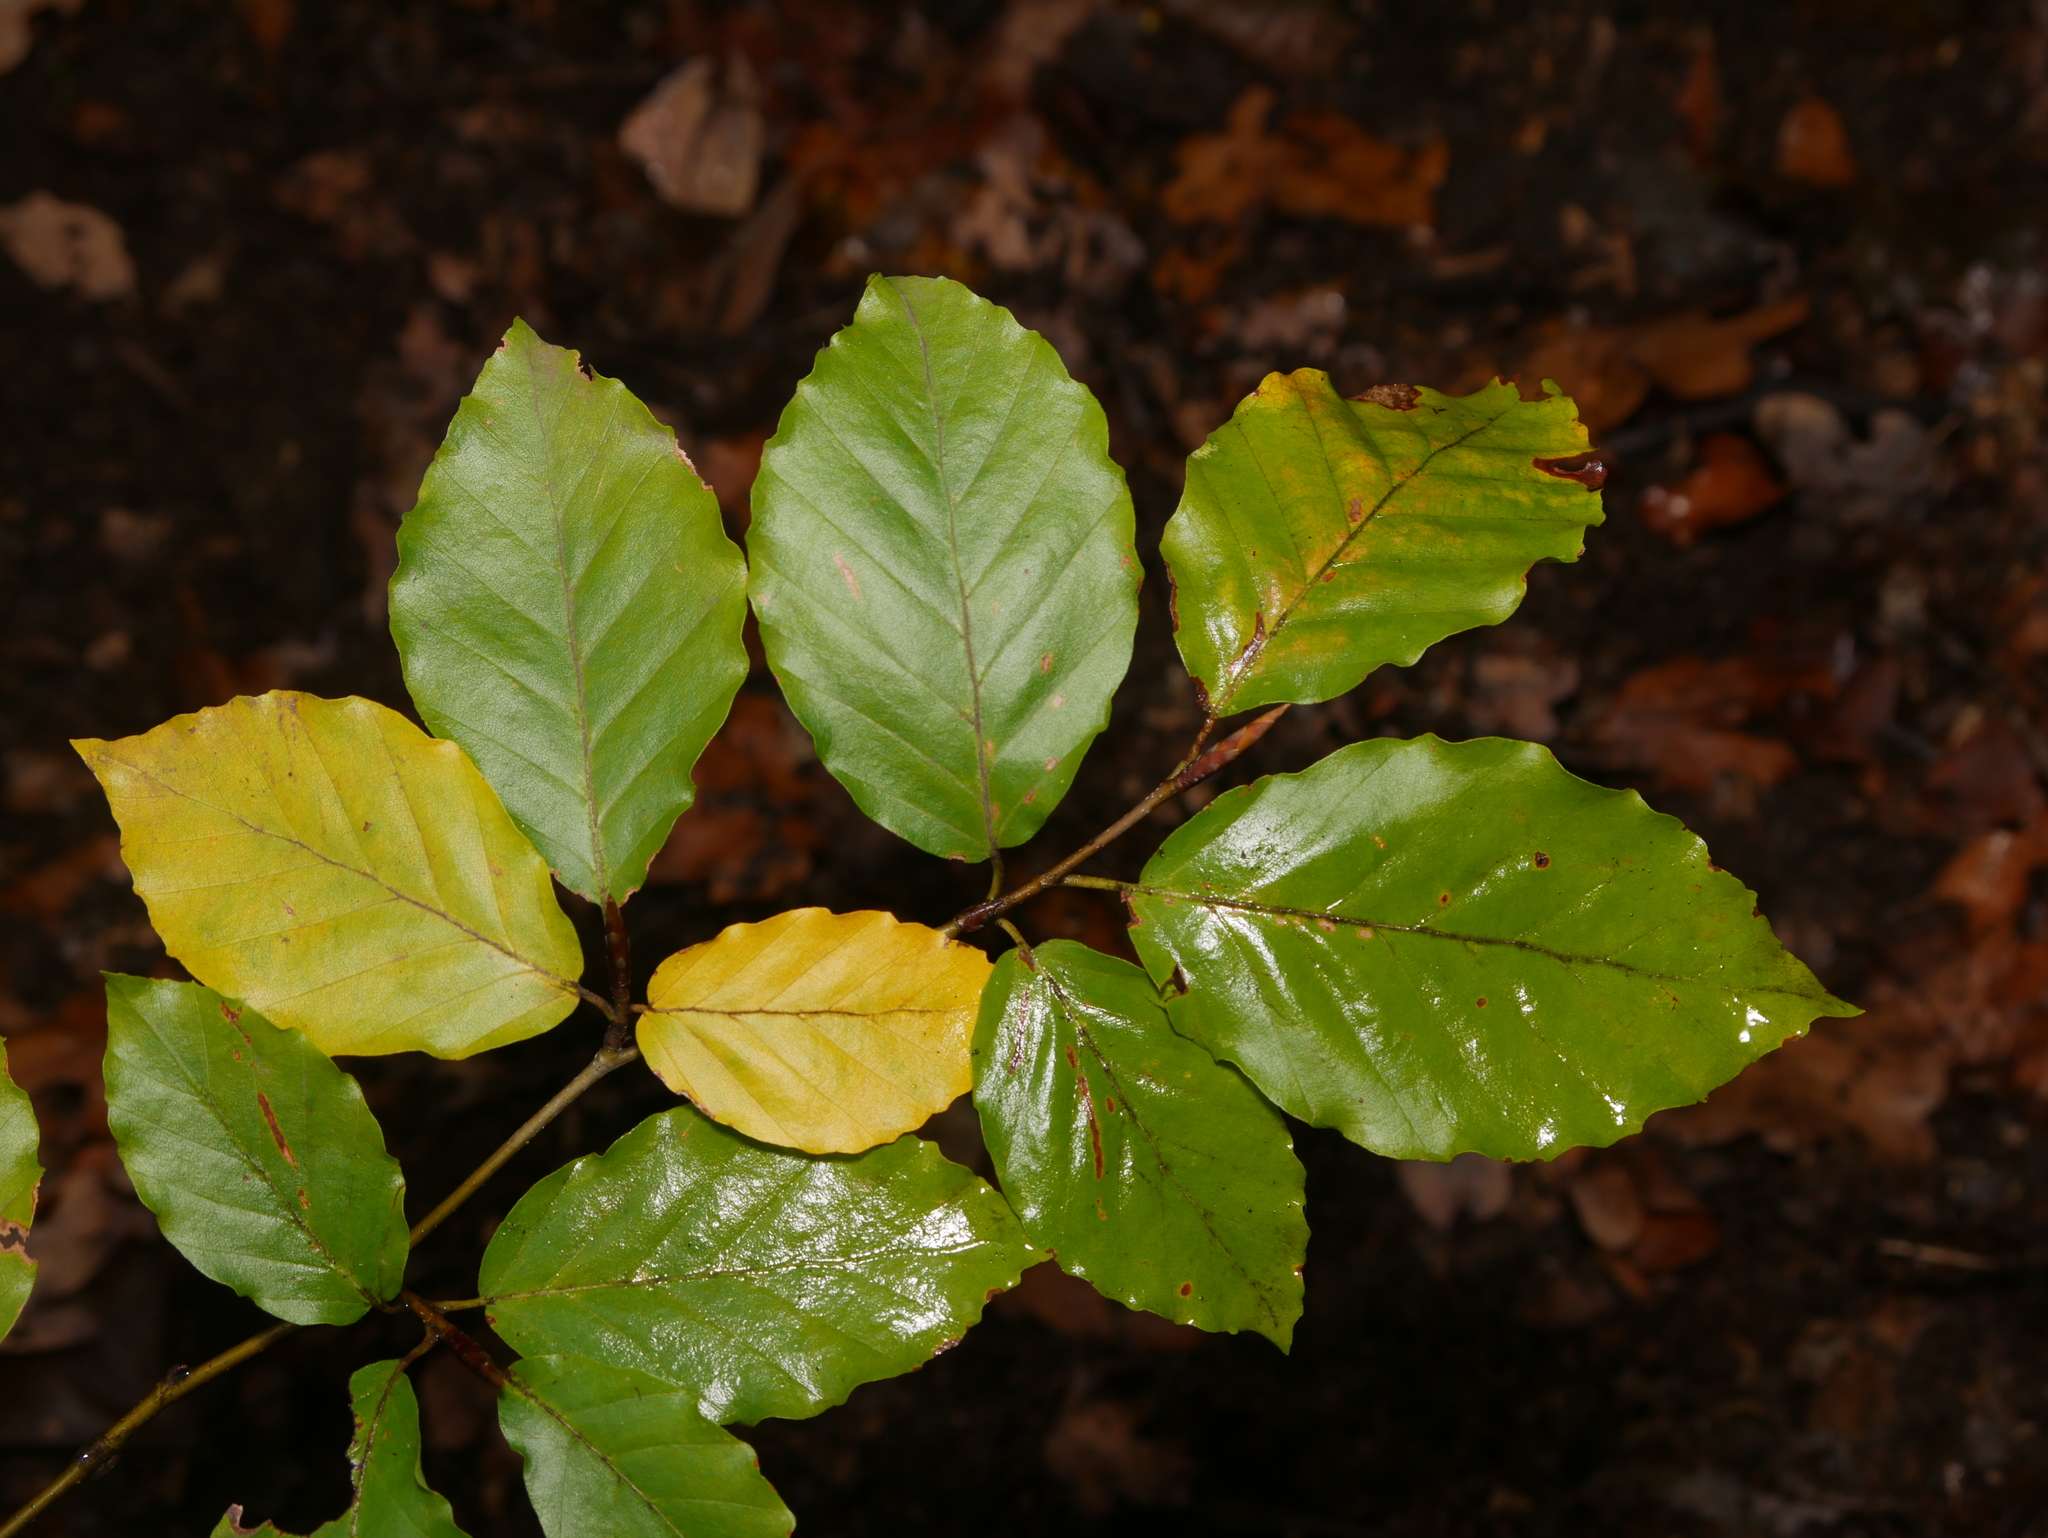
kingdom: Plantae
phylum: Tracheophyta
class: Magnoliopsida
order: Fagales
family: Fagaceae
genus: Fagus
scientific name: Fagus sylvatica
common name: Beech
